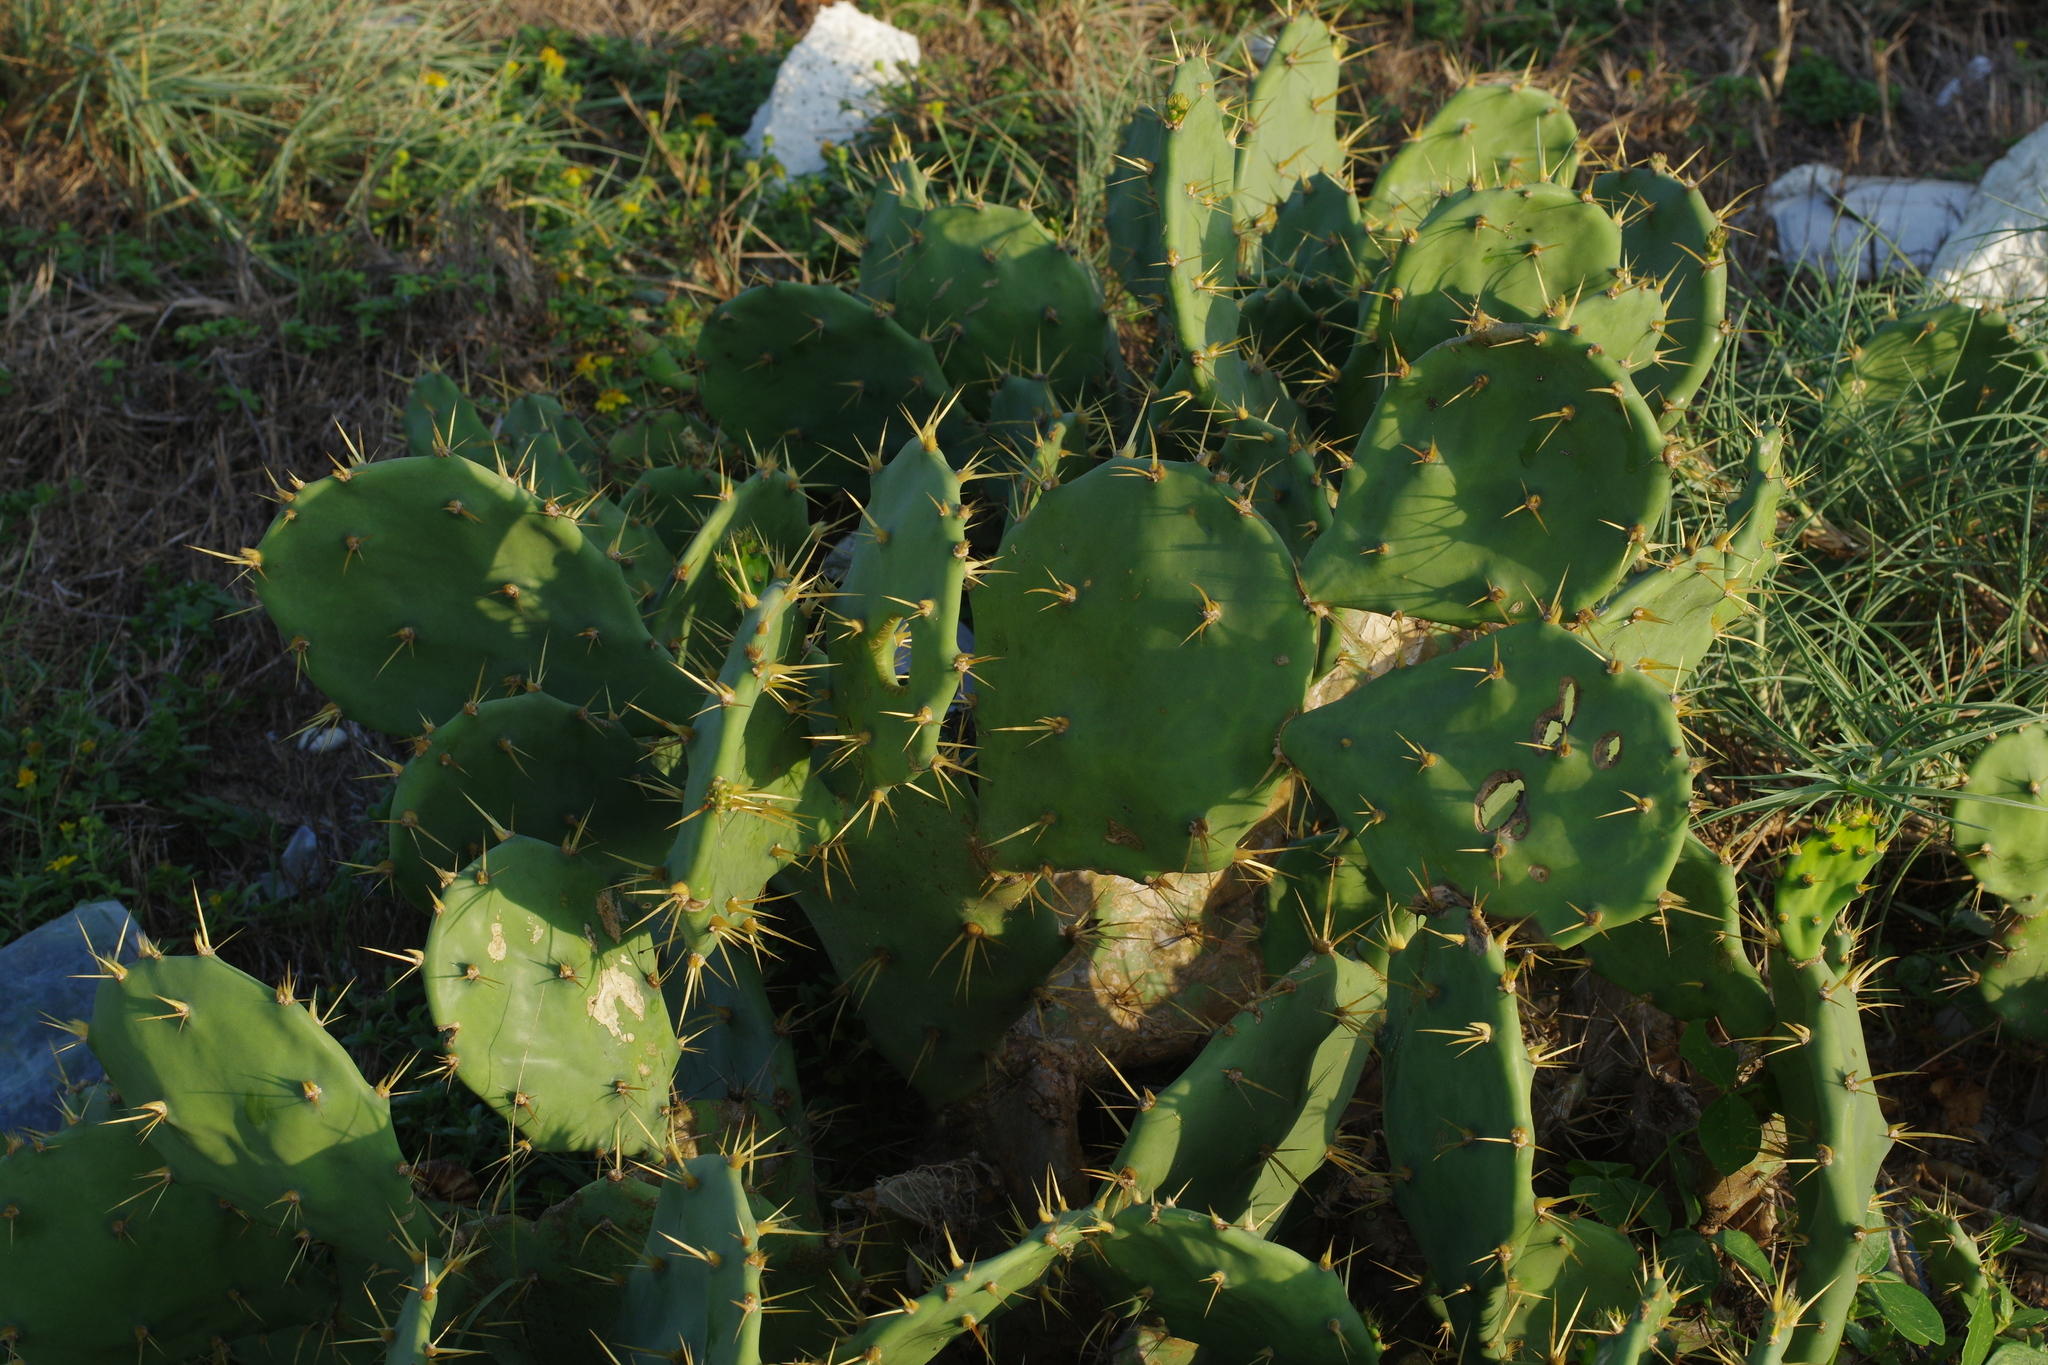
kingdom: Plantae
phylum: Tracheophyta
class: Magnoliopsida
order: Caryophyllales
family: Cactaceae
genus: Opuntia
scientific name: Opuntia dillenii
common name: Sour prickle
